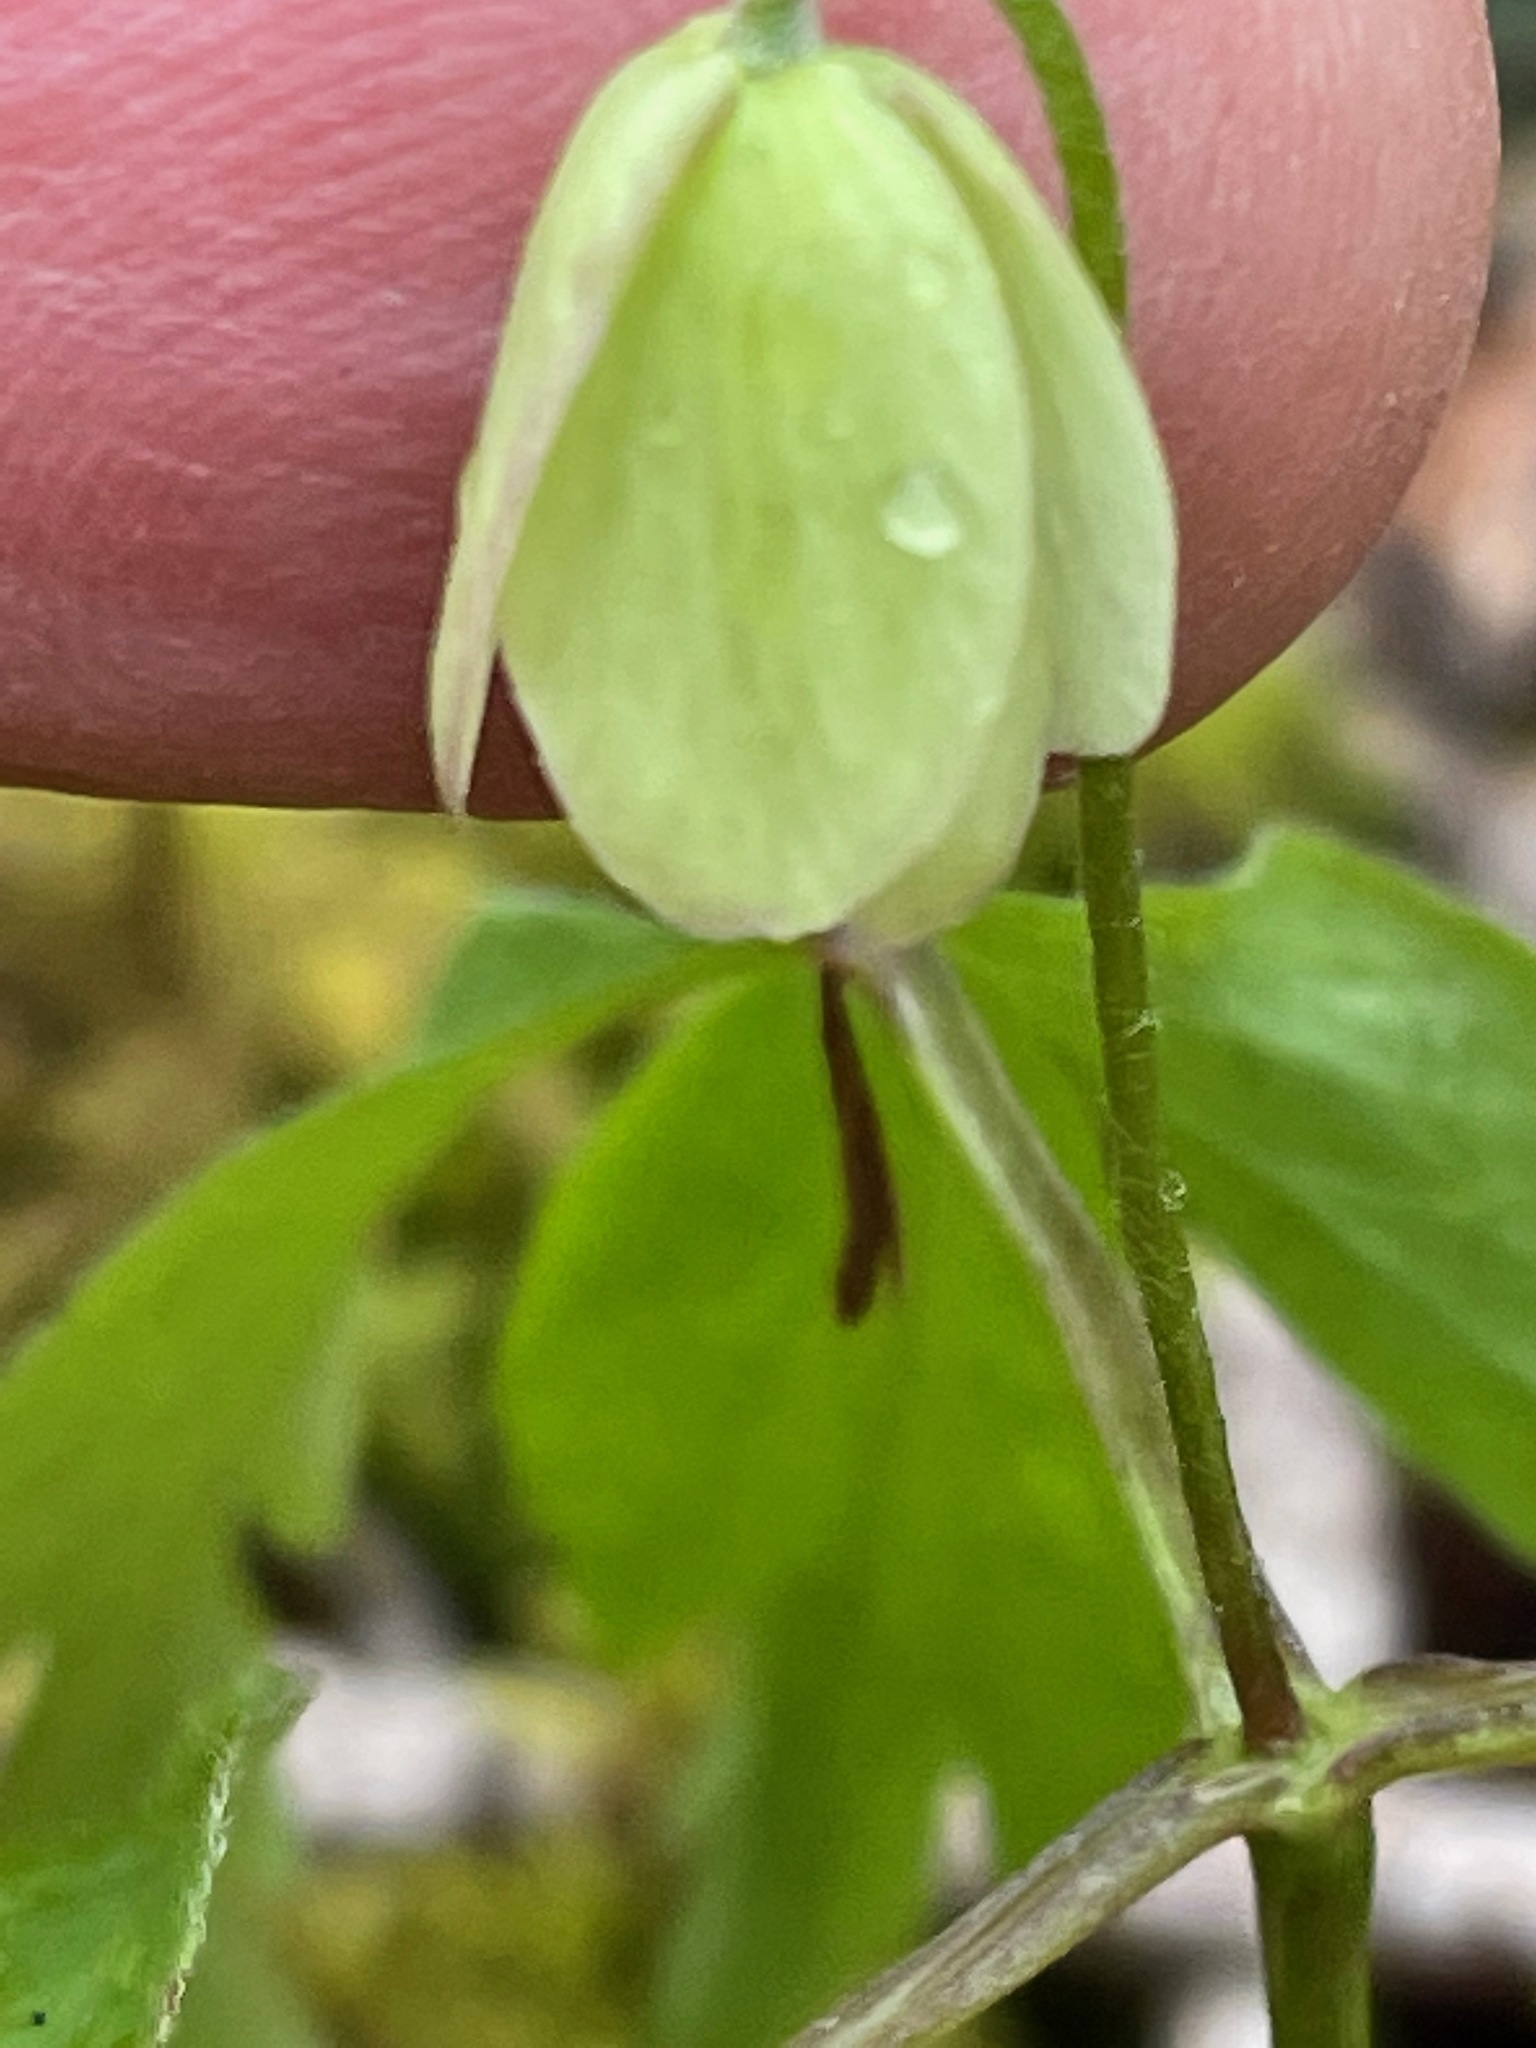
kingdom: Plantae
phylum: Tracheophyta
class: Magnoliopsida
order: Ranunculales
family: Ranunculaceae
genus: Anemone
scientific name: Anemone quinquefolia
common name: Wood anemone
